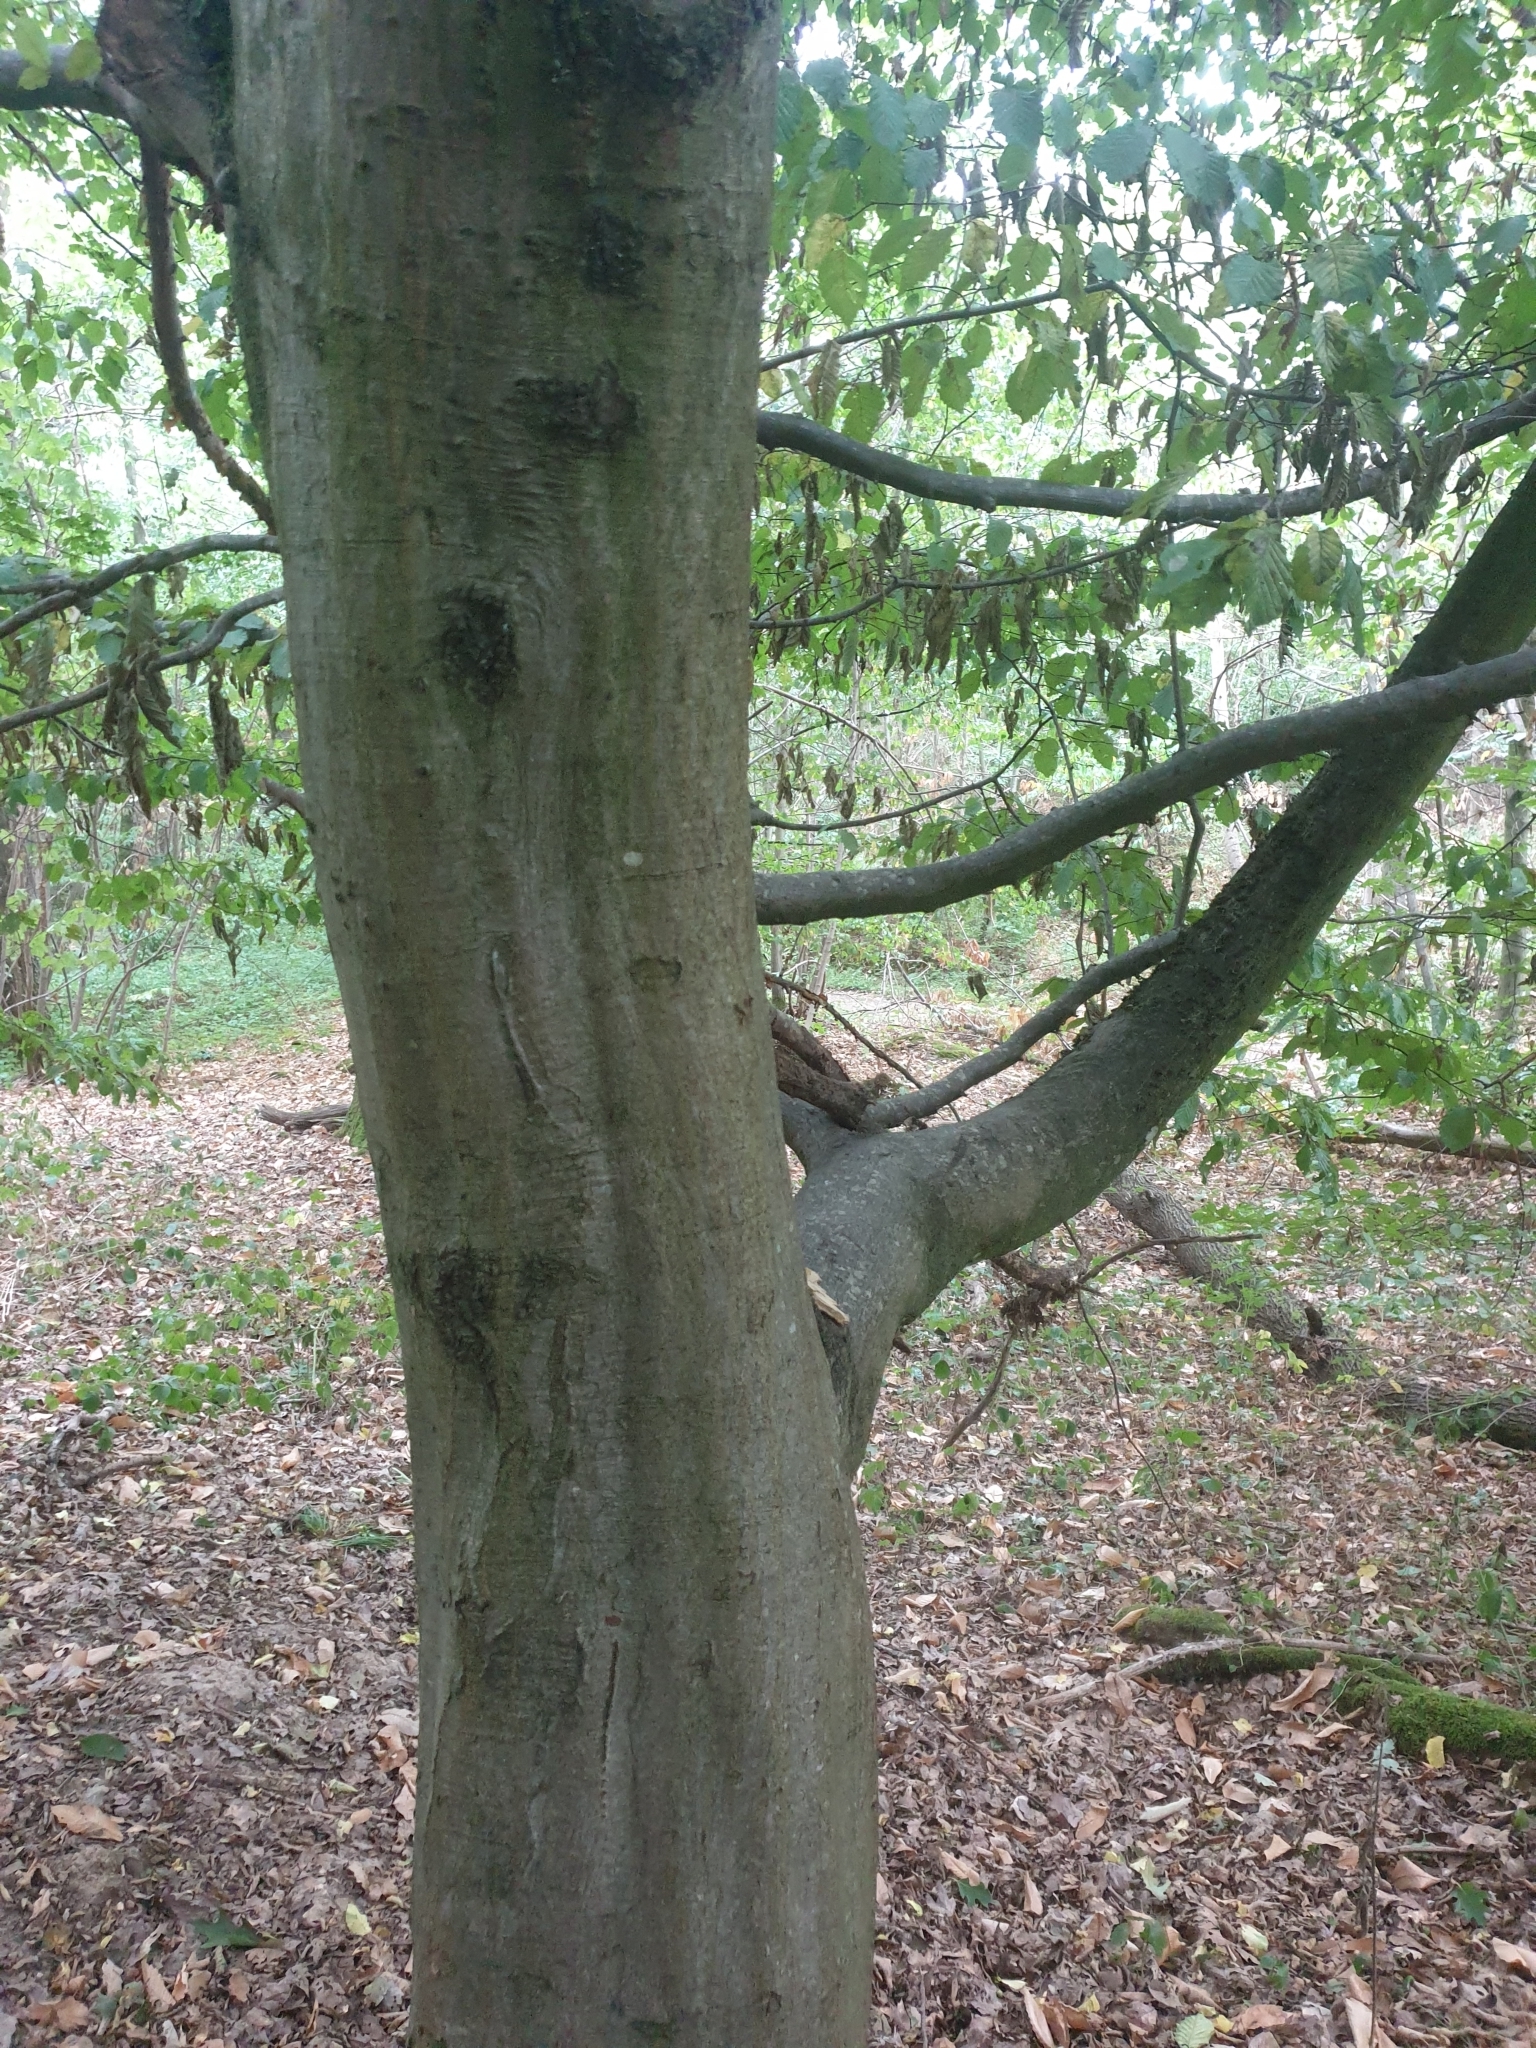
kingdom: Plantae
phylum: Tracheophyta
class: Magnoliopsida
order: Fagales
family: Betulaceae
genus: Carpinus
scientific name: Carpinus betulus
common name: Hornbeam
